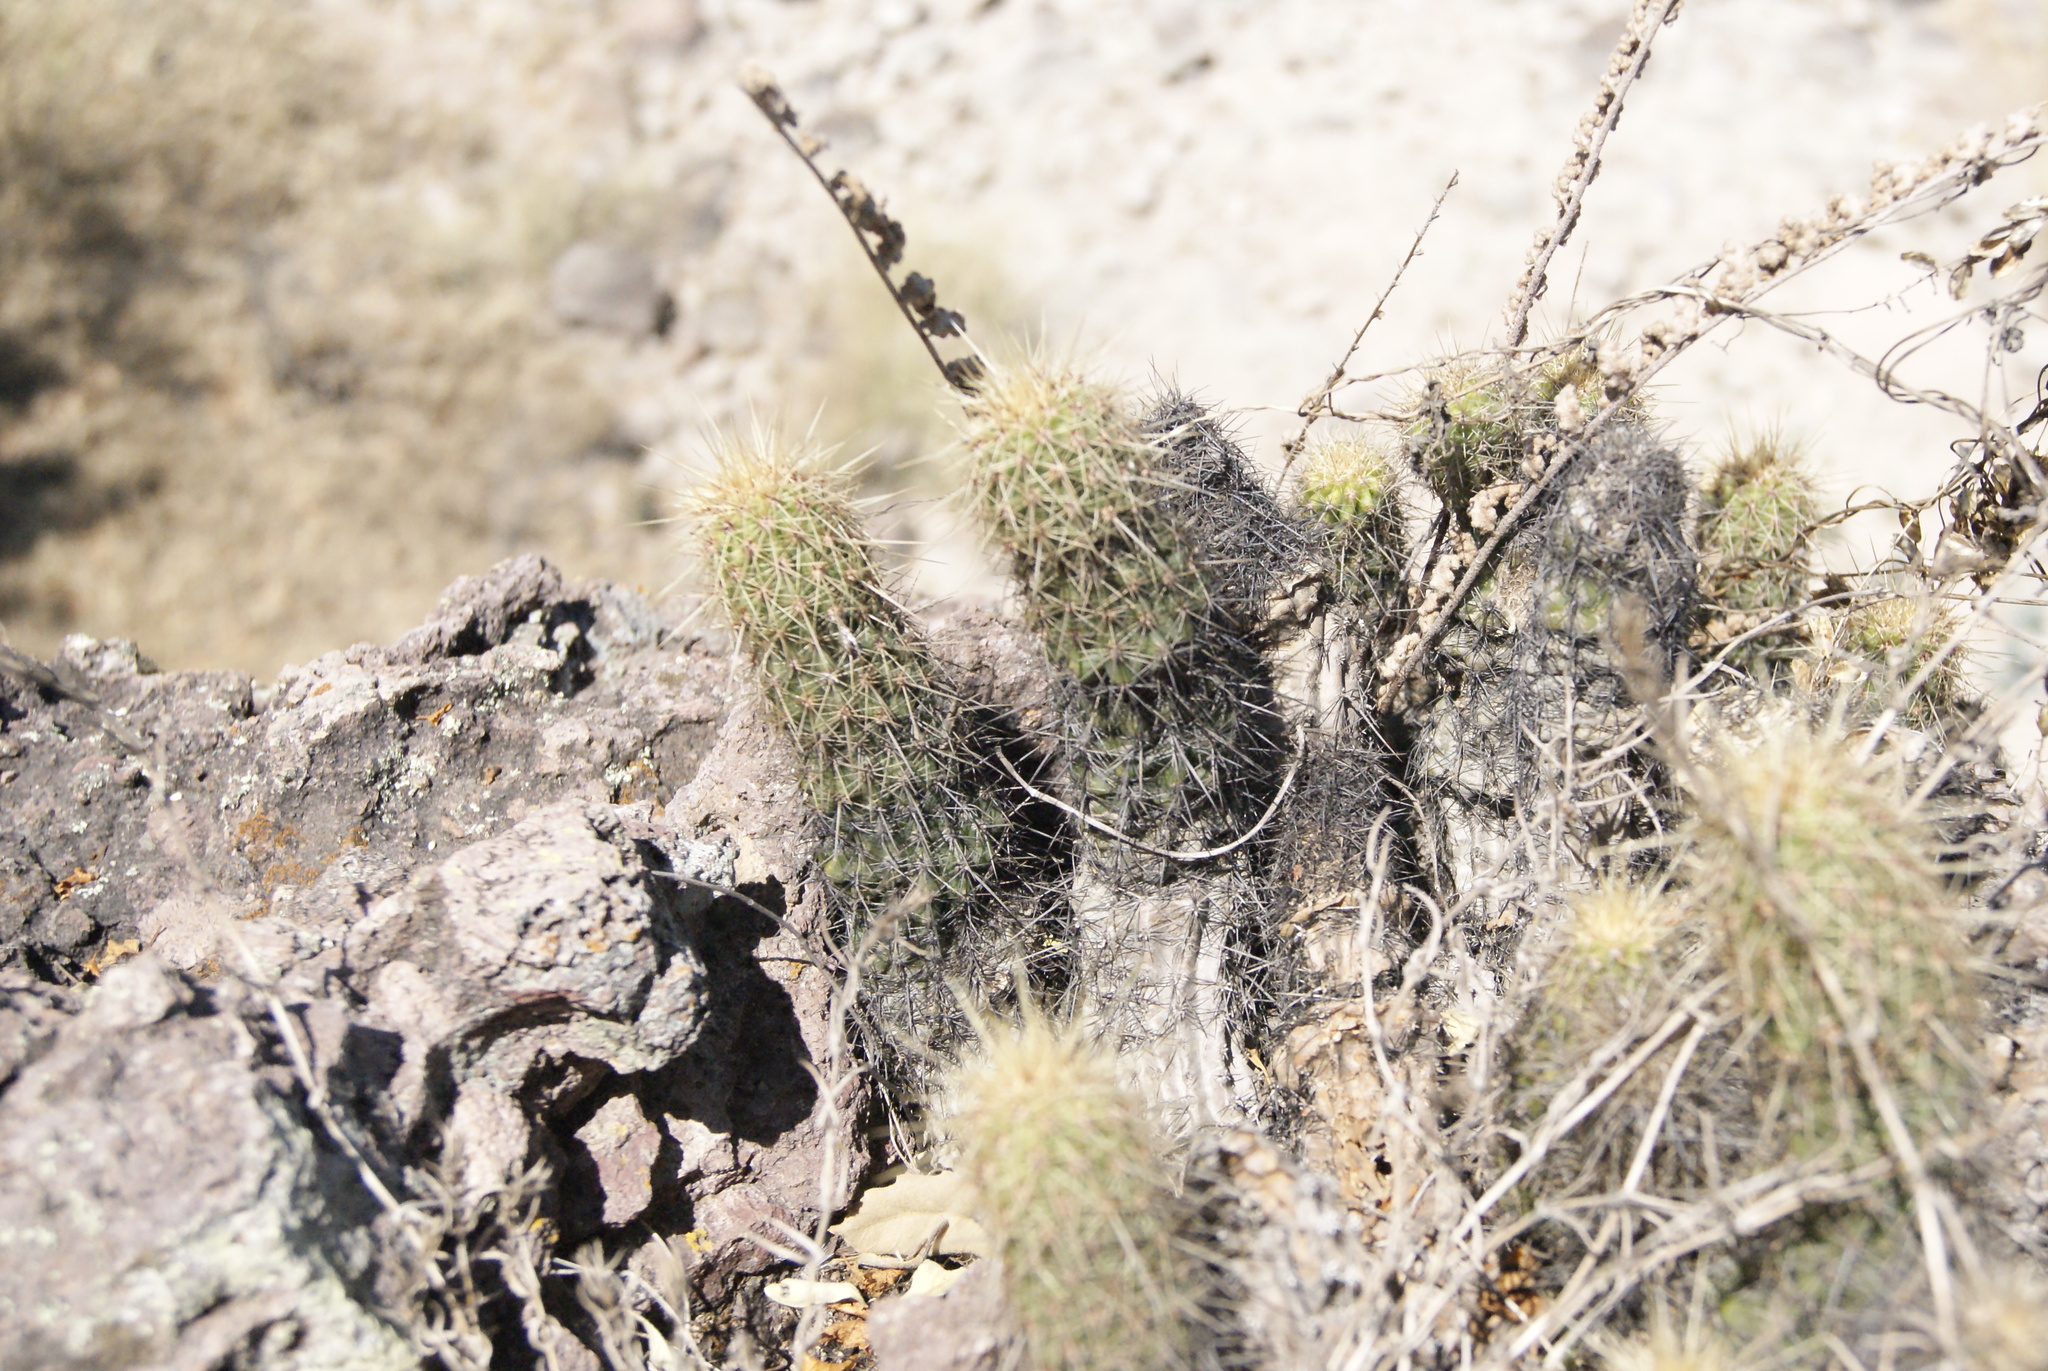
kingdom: Plantae
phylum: Tracheophyta
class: Magnoliopsida
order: Caryophyllales
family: Cactaceae
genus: Echinocereus
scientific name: Echinocereus spinigemmatus
